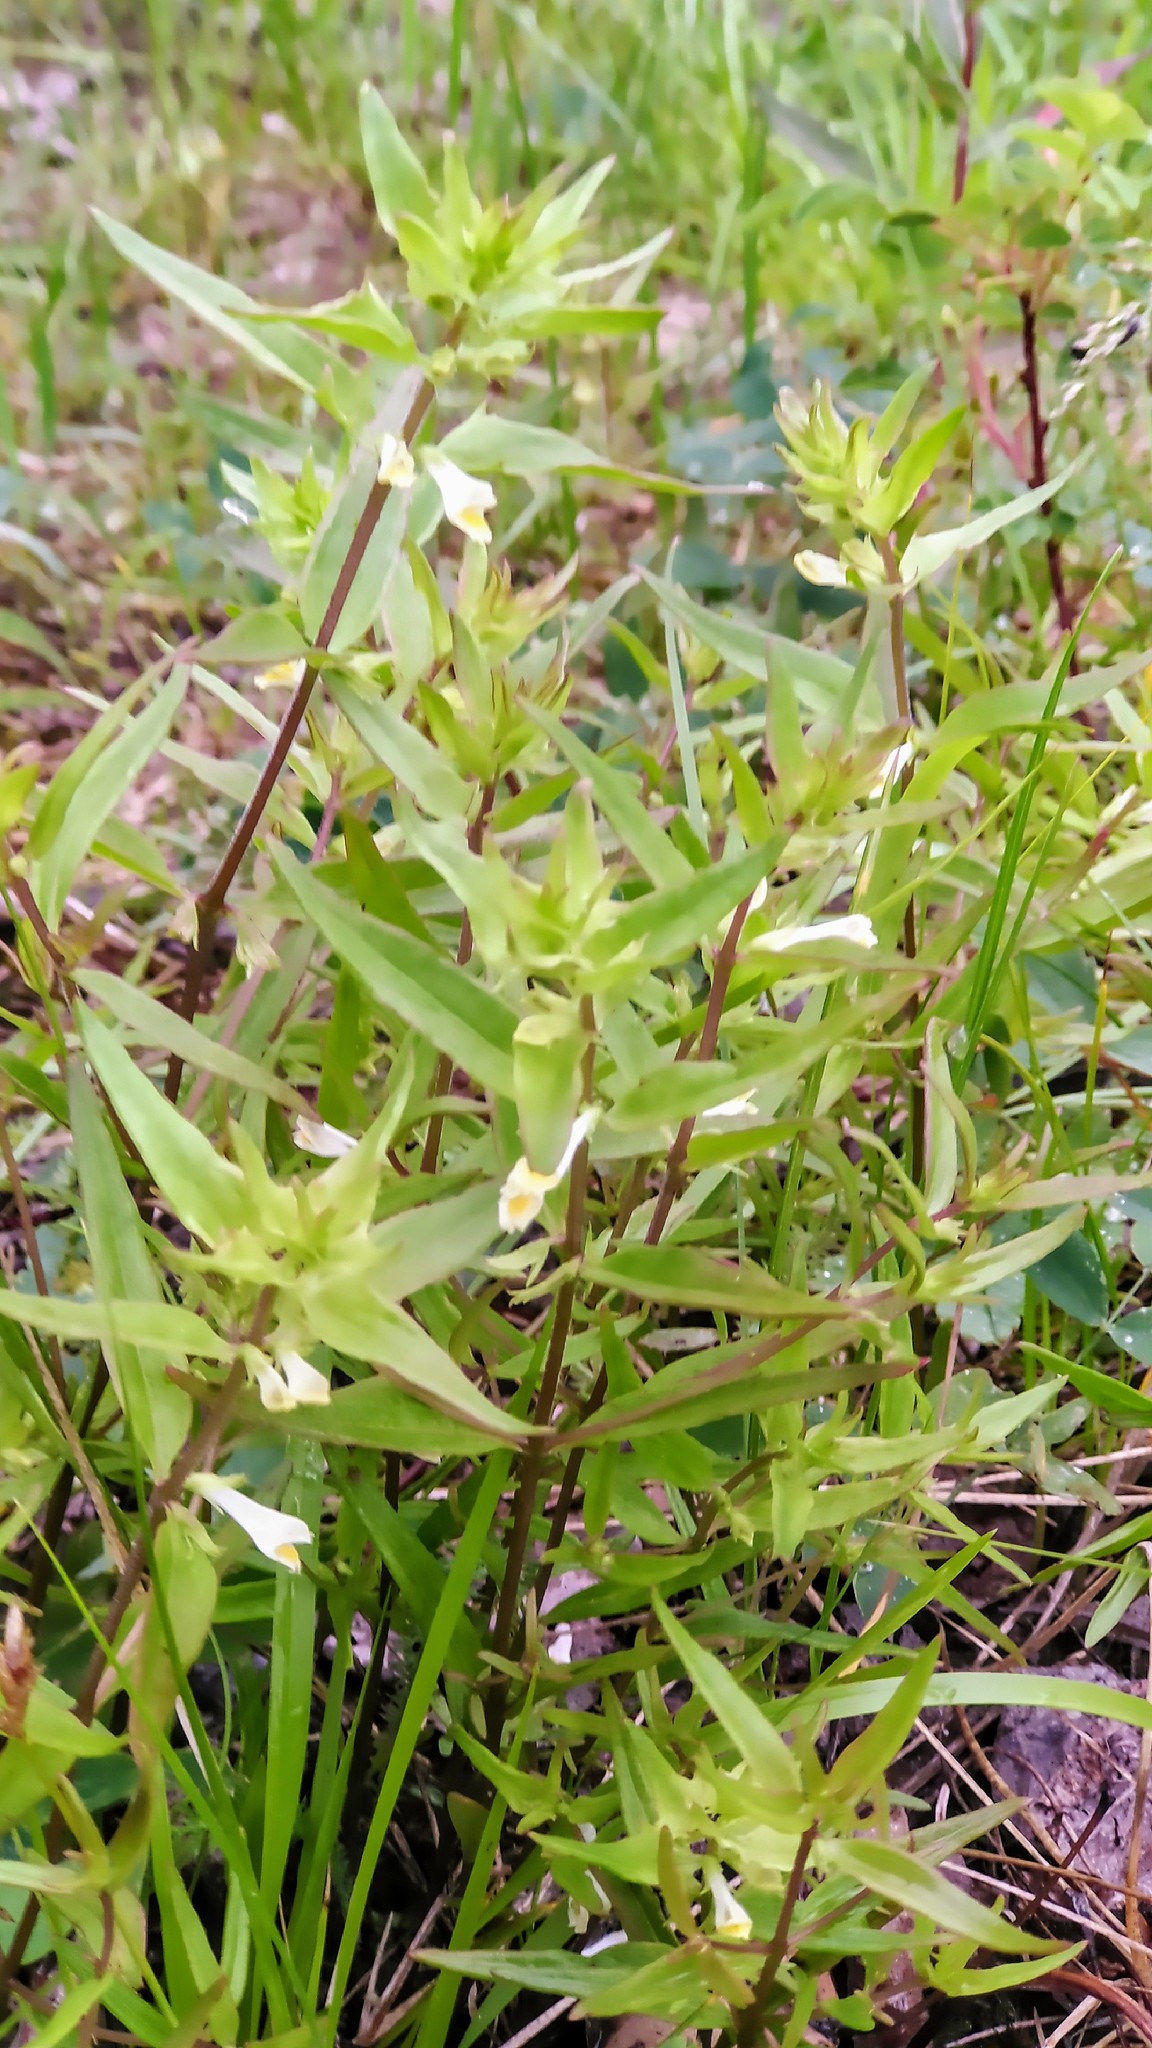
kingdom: Plantae
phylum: Tracheophyta
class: Magnoliopsida
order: Lamiales
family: Orobanchaceae
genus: Melampyrum
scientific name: Melampyrum lineare
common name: American cow-wheat
